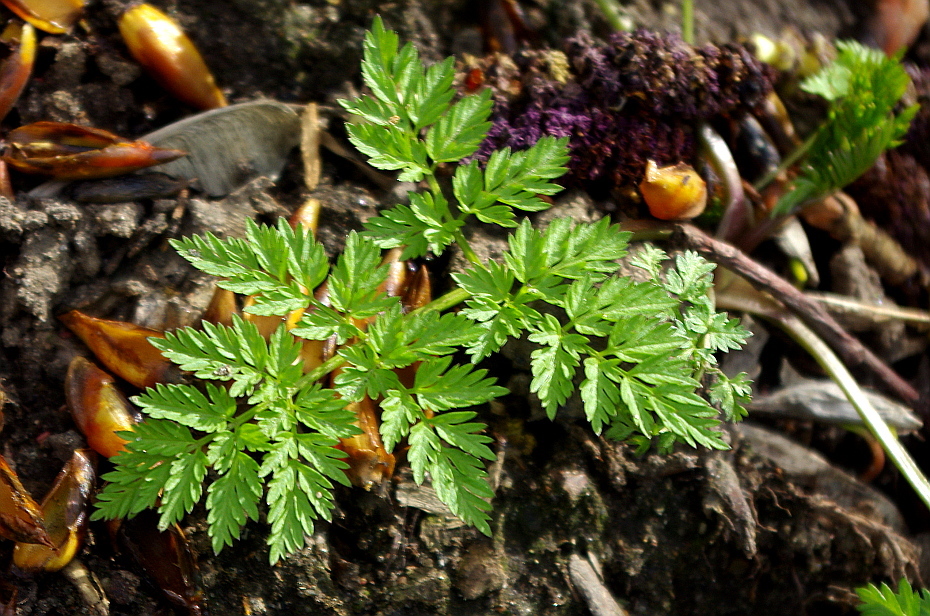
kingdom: Plantae
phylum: Tracheophyta
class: Magnoliopsida
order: Apiales
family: Apiaceae
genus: Anthriscus
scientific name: Anthriscus sylvestris
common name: Cow parsley
